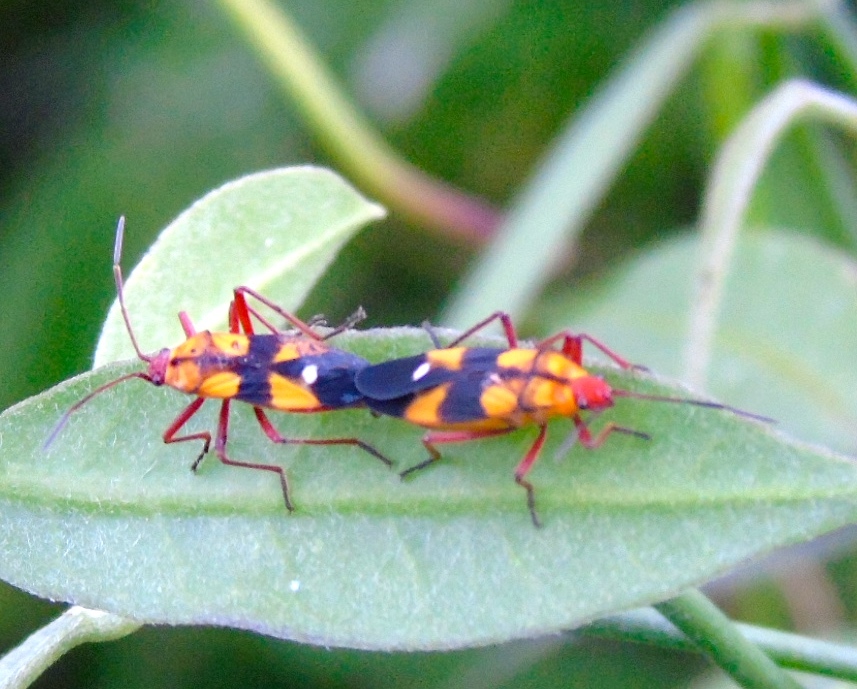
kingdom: Animalia
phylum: Arthropoda
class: Insecta
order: Hemiptera
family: Lygaeidae
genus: Oncopeltus
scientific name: Oncopeltus sexmaculatus
